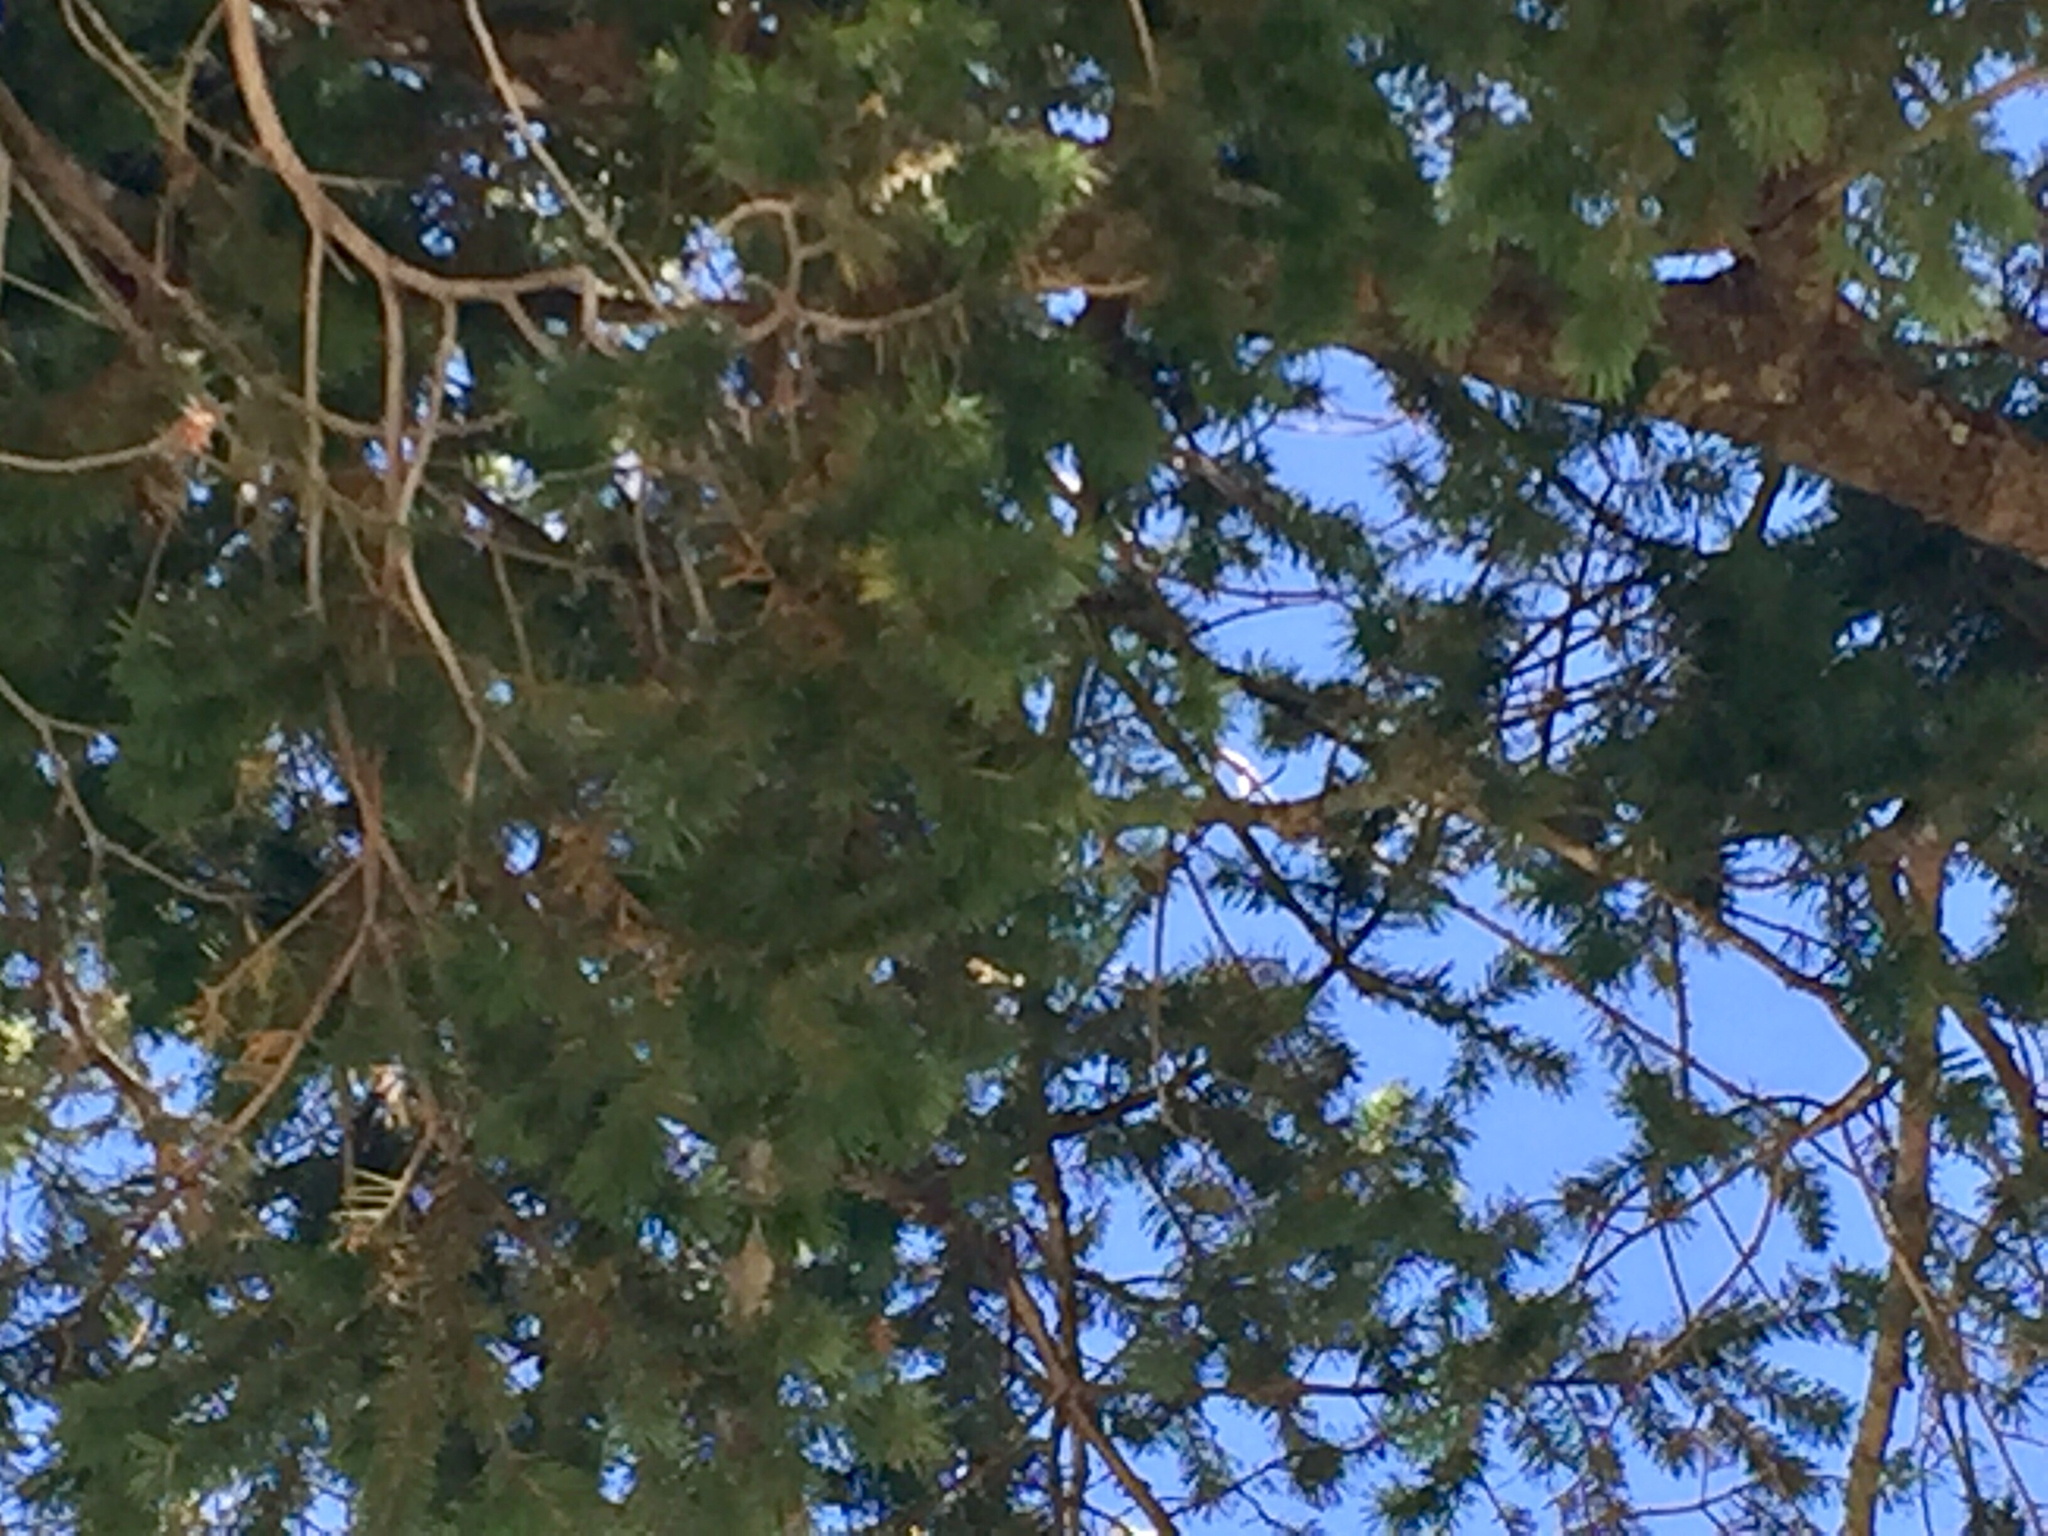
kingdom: Plantae
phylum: Tracheophyta
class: Pinopsida
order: Pinales
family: Pinaceae
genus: Pseudotsuga
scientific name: Pseudotsuga menziesii
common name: Douglas fir
